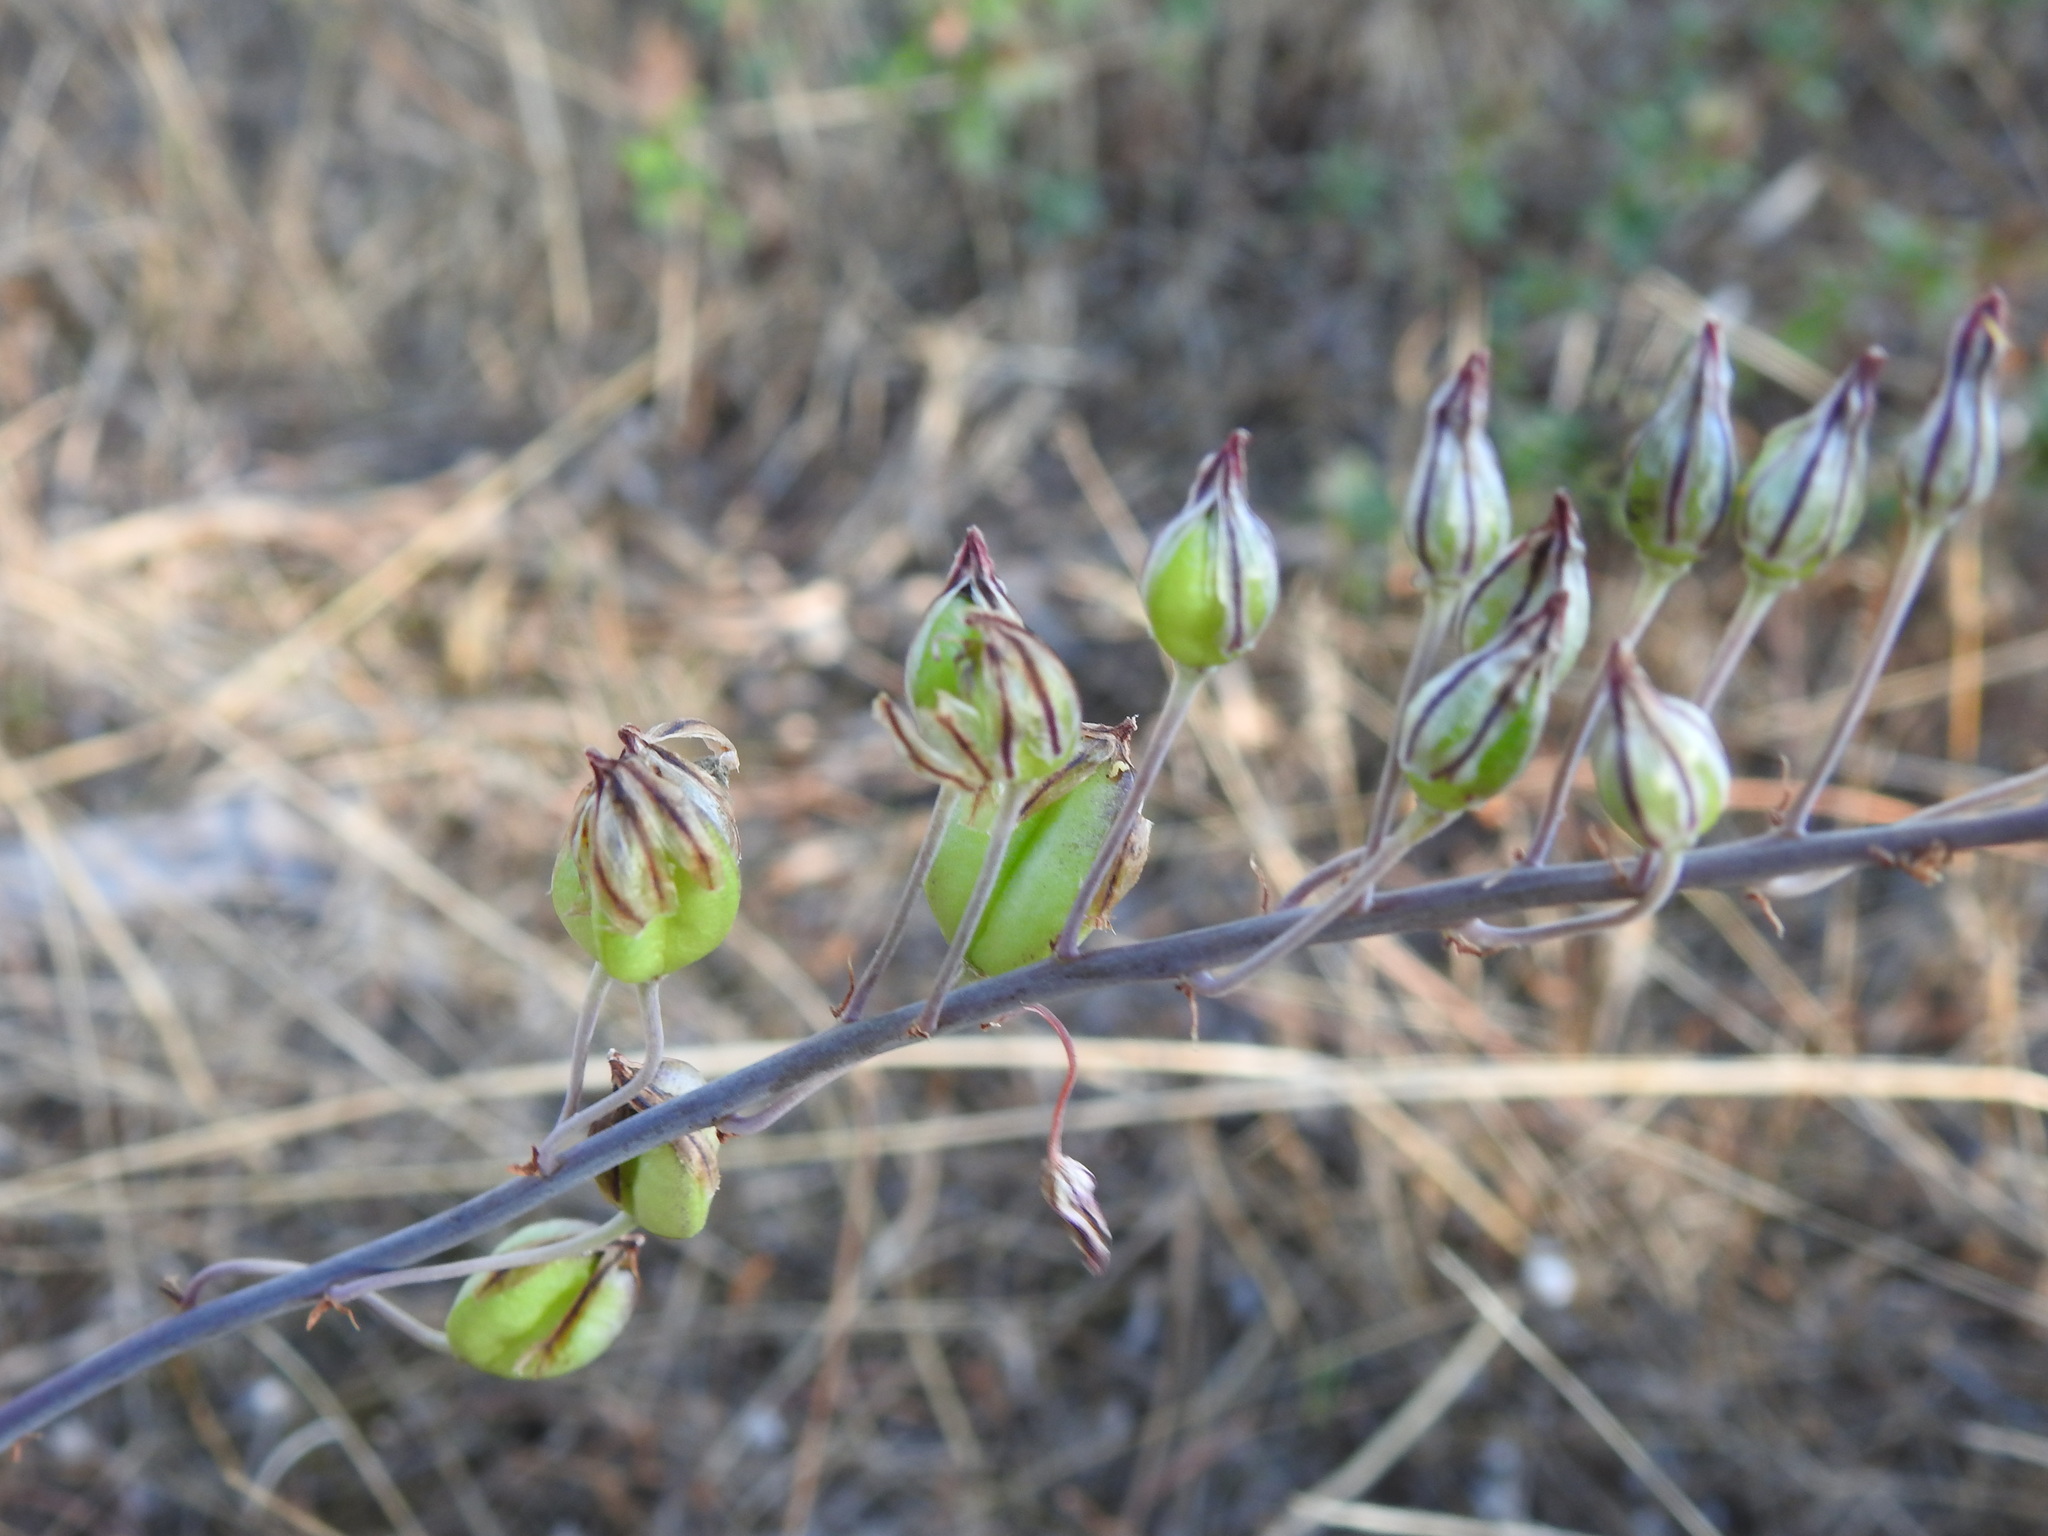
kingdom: Plantae
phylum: Tracheophyta
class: Liliopsida
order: Asparagales
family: Asparagaceae
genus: Drimia
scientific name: Drimia maritima
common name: Maritime squill
